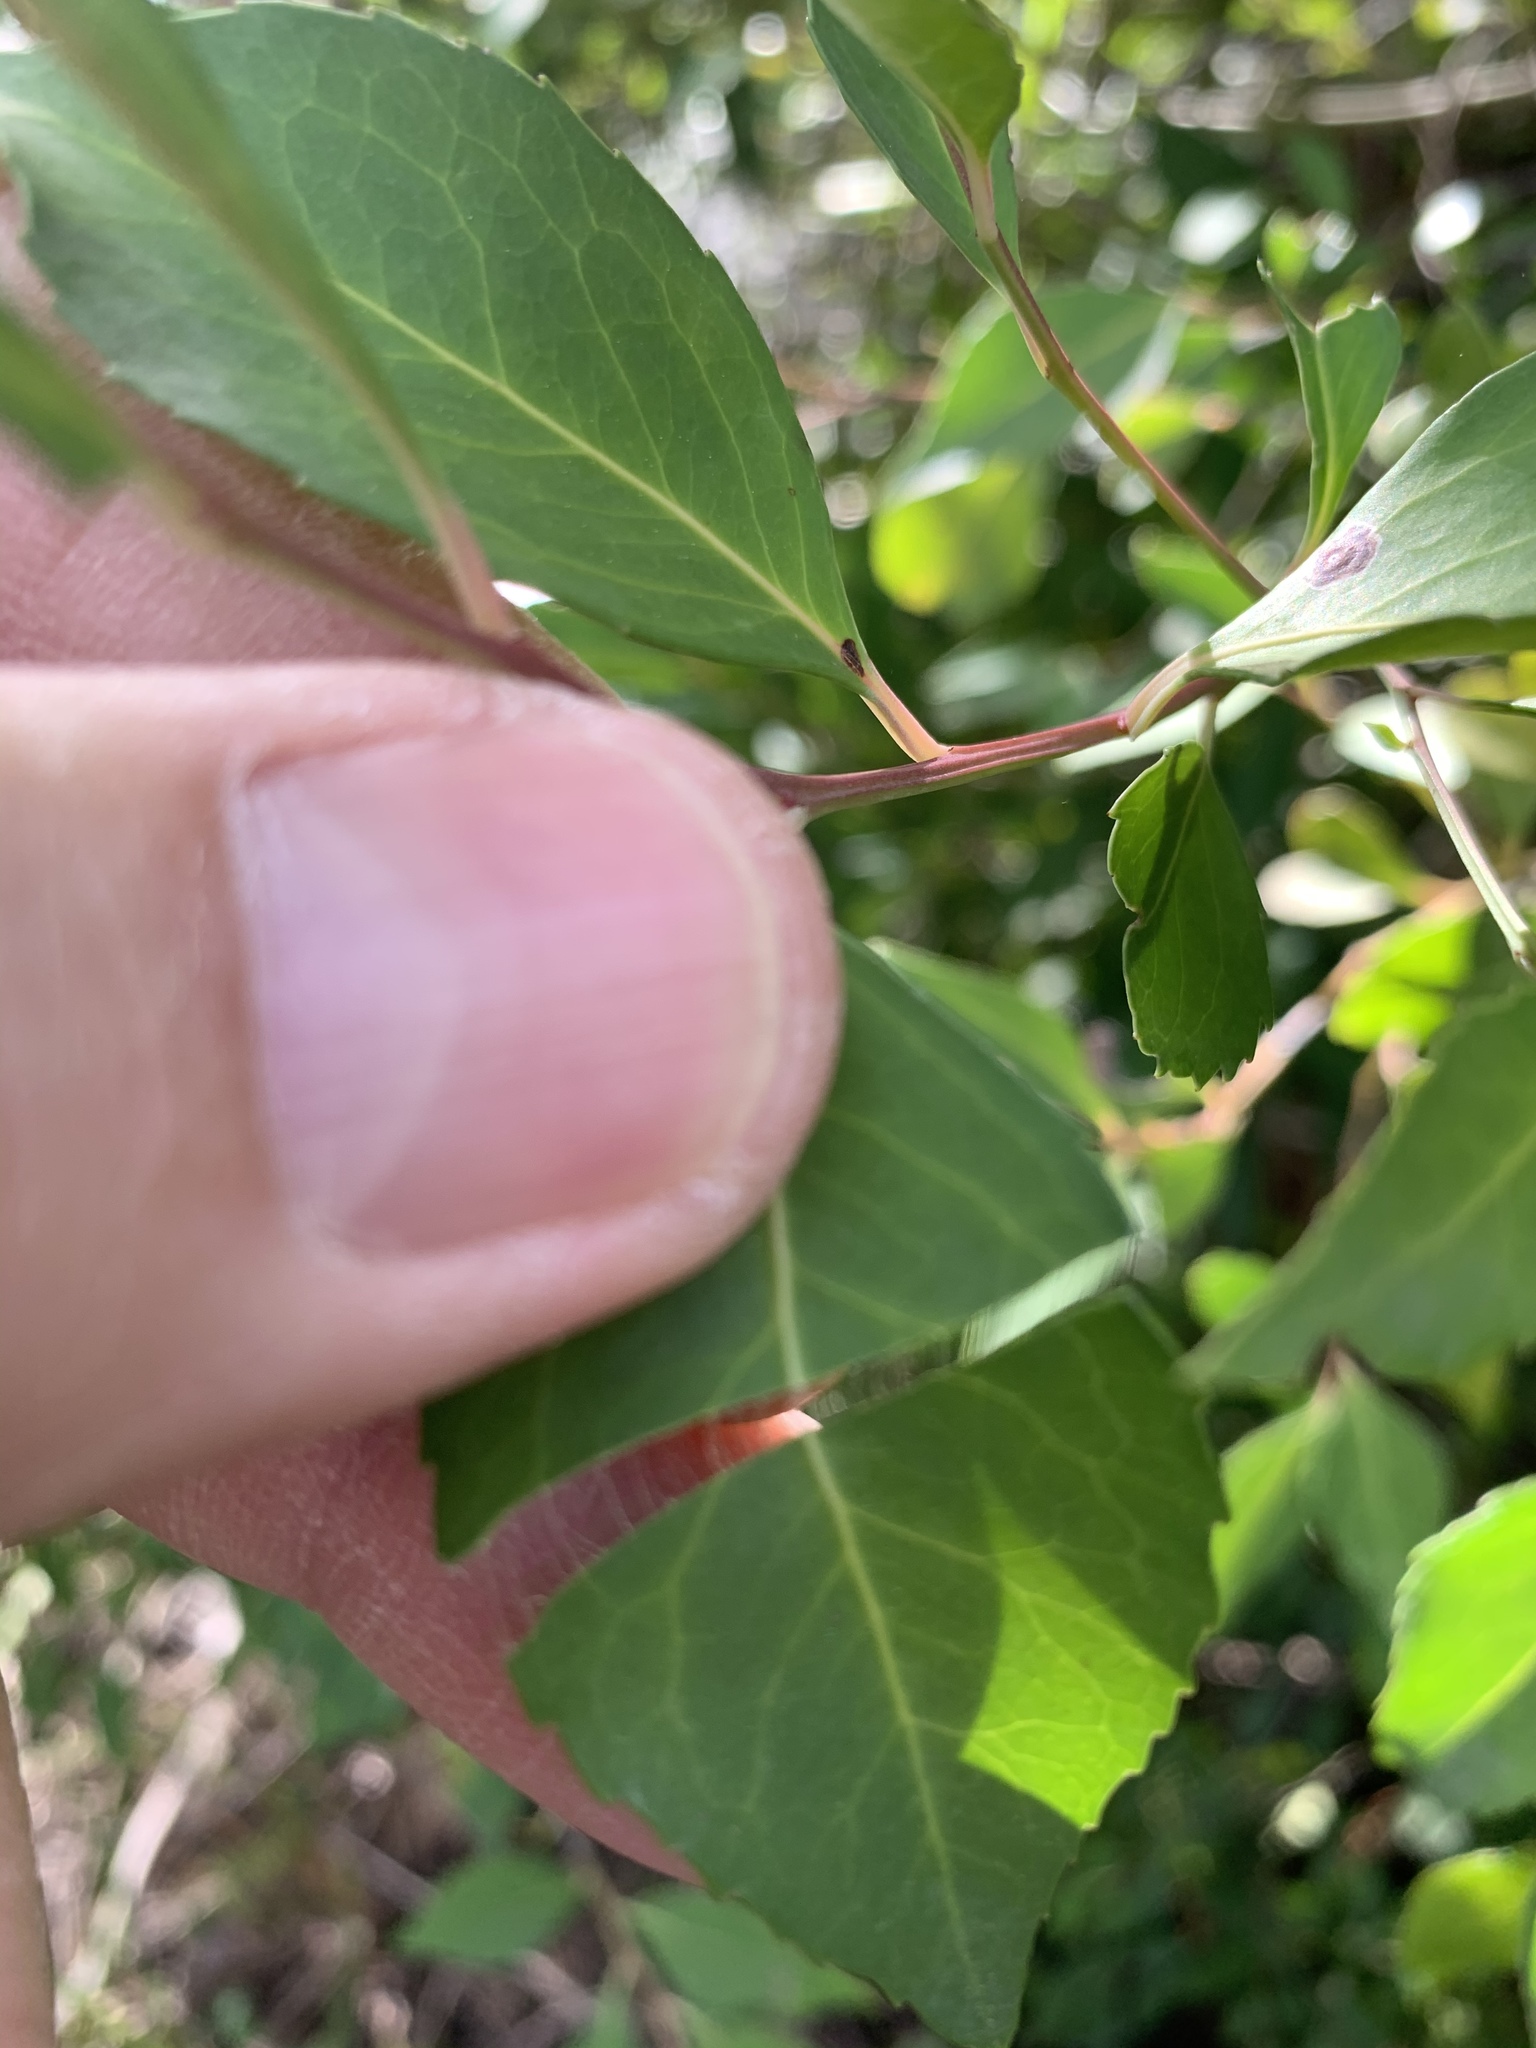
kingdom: Plantae
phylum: Tracheophyta
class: Magnoliopsida
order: Celastrales
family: Celastraceae
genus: Gymnosporia
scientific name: Gymnosporia acuminata
